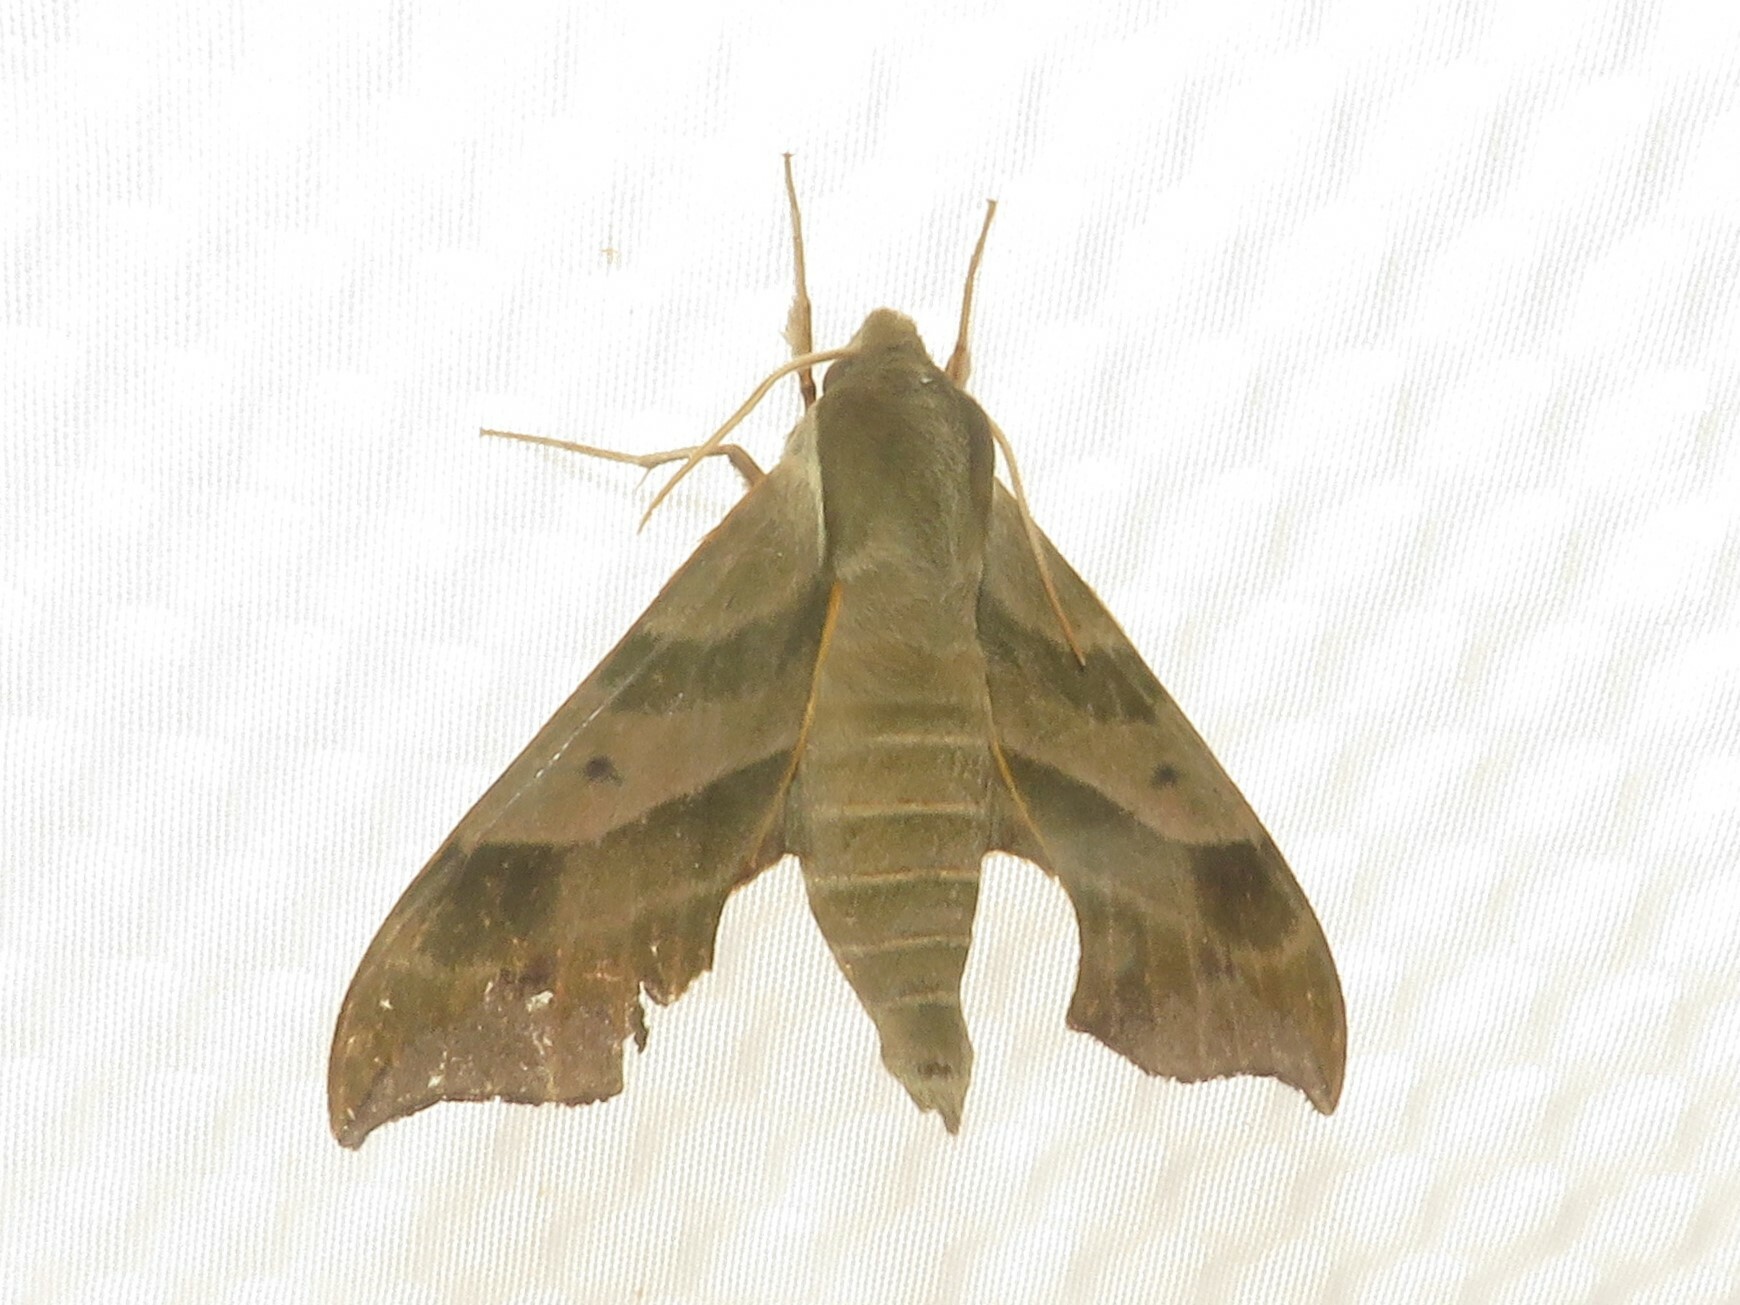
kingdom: Animalia
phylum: Arthropoda
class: Insecta
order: Lepidoptera
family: Sphingidae
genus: Darapsa
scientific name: Darapsa myron
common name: Hog sphinx
